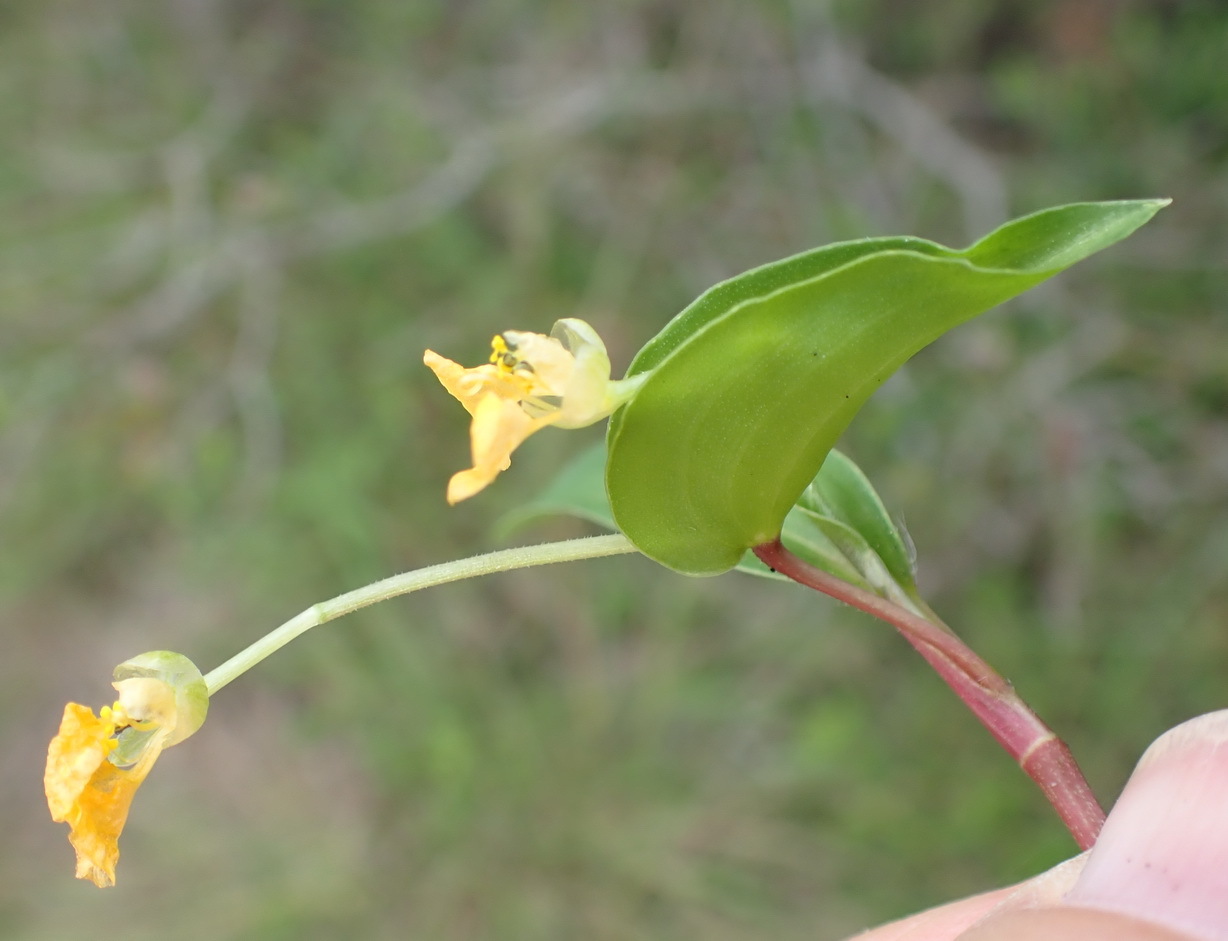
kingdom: Plantae
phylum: Tracheophyta
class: Liliopsida
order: Commelinales
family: Commelinaceae
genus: Commelina
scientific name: Commelina africana
